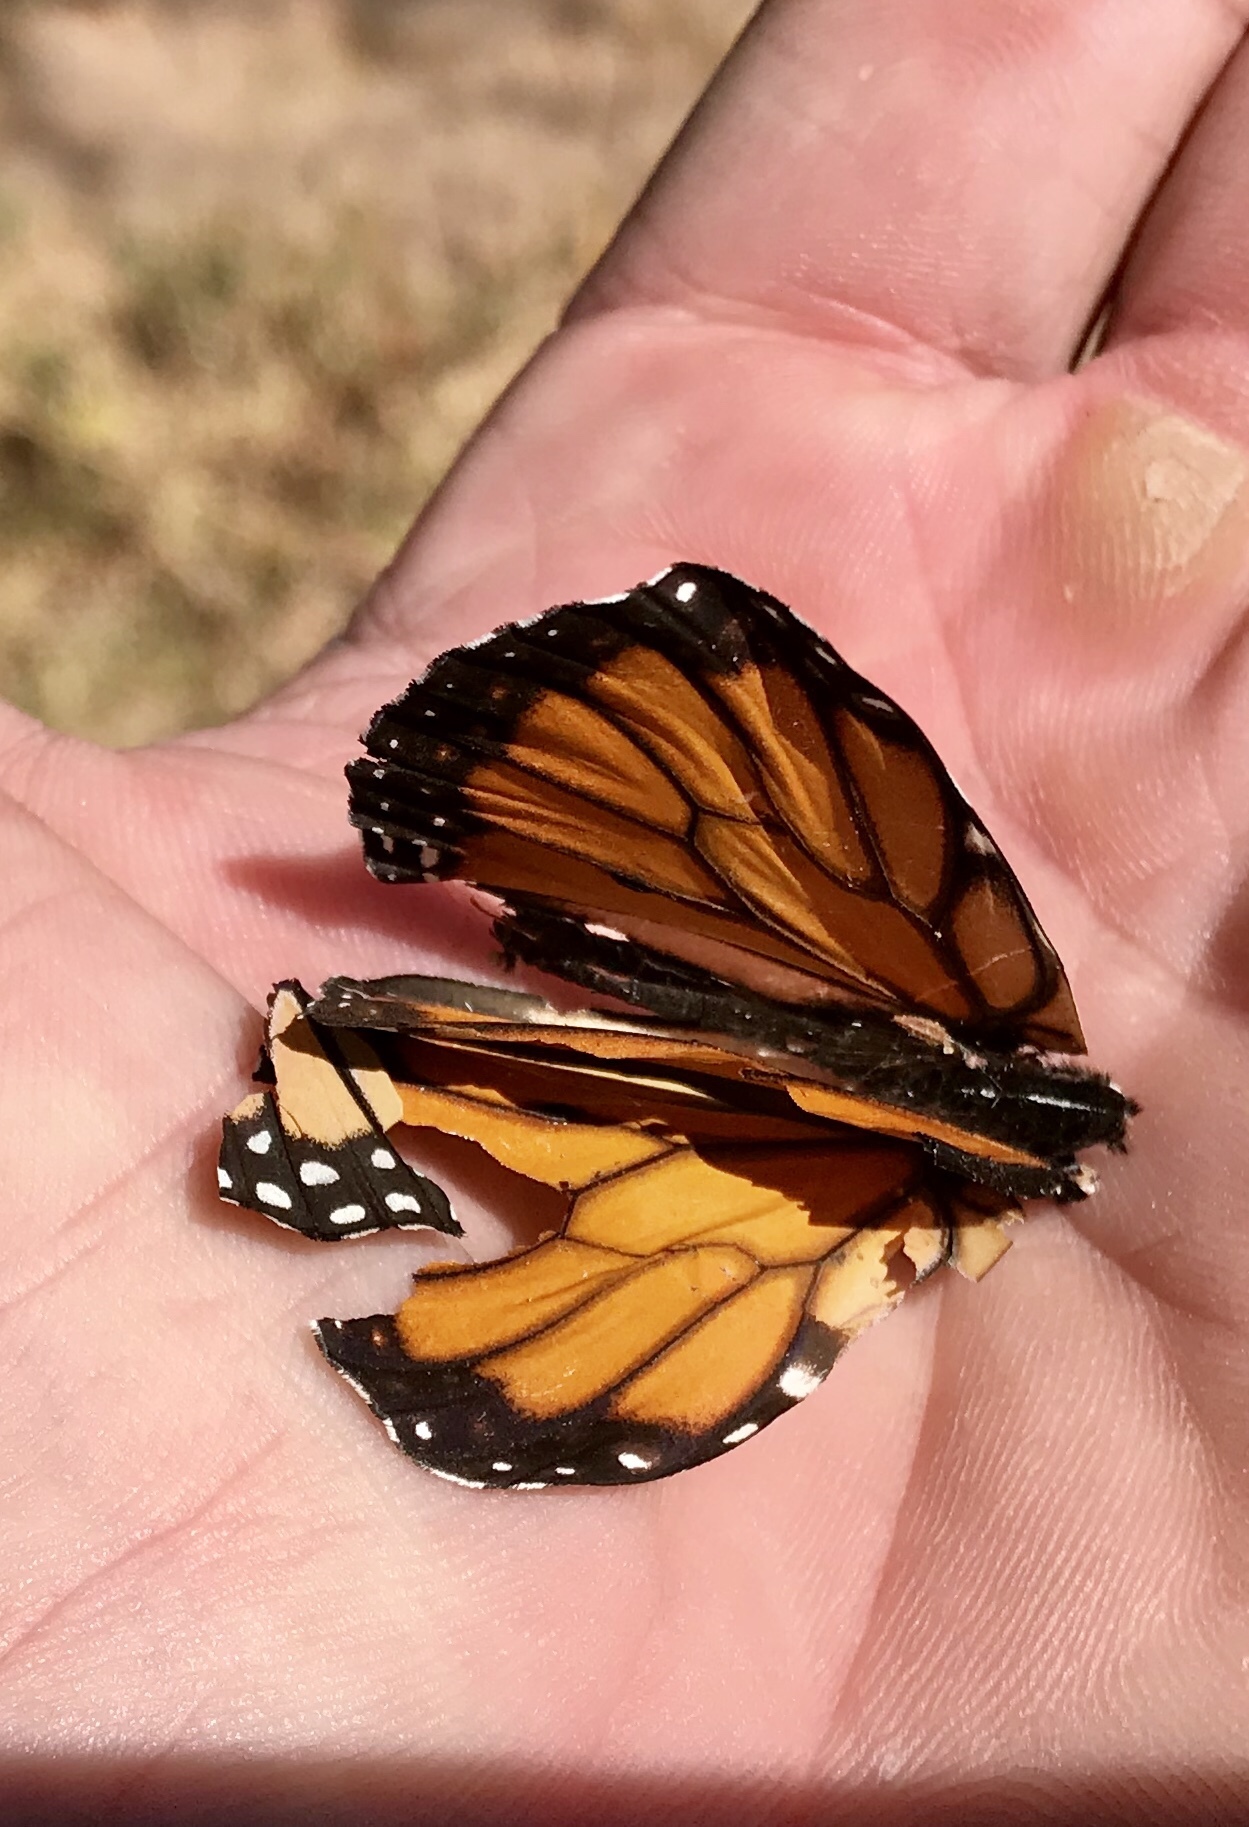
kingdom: Animalia
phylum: Arthropoda
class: Insecta
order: Lepidoptera
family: Nymphalidae
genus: Danaus
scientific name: Danaus plexippus
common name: Monarch
